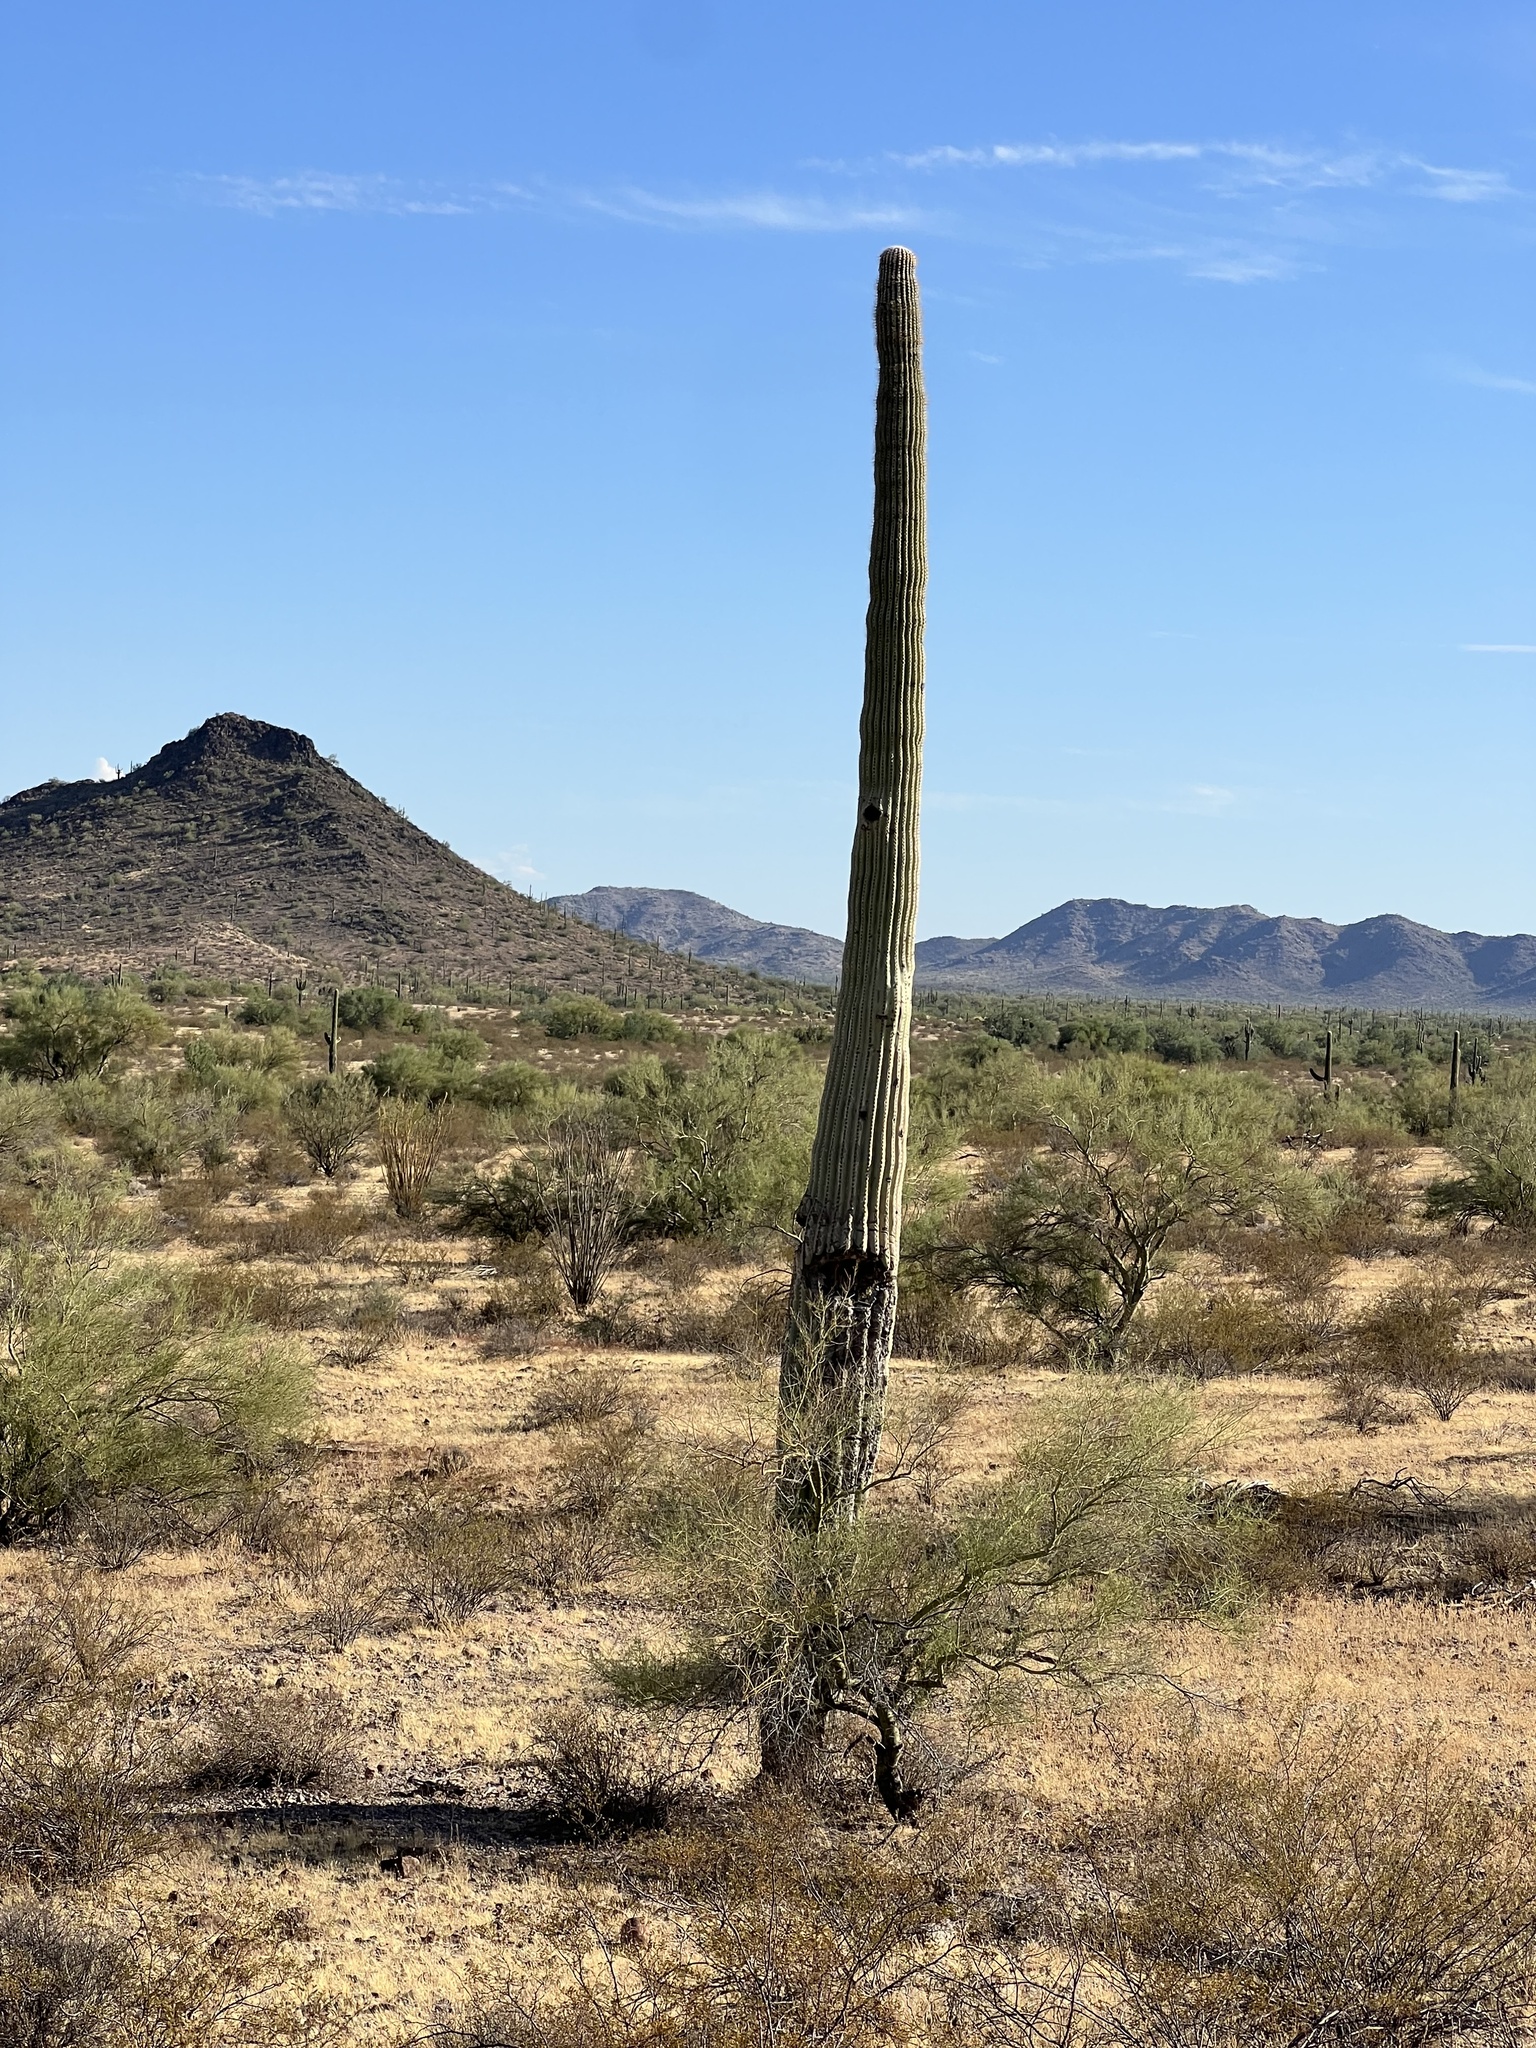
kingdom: Plantae
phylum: Tracheophyta
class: Magnoliopsida
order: Caryophyllales
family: Cactaceae
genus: Carnegiea
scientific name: Carnegiea gigantea
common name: Saguaro
